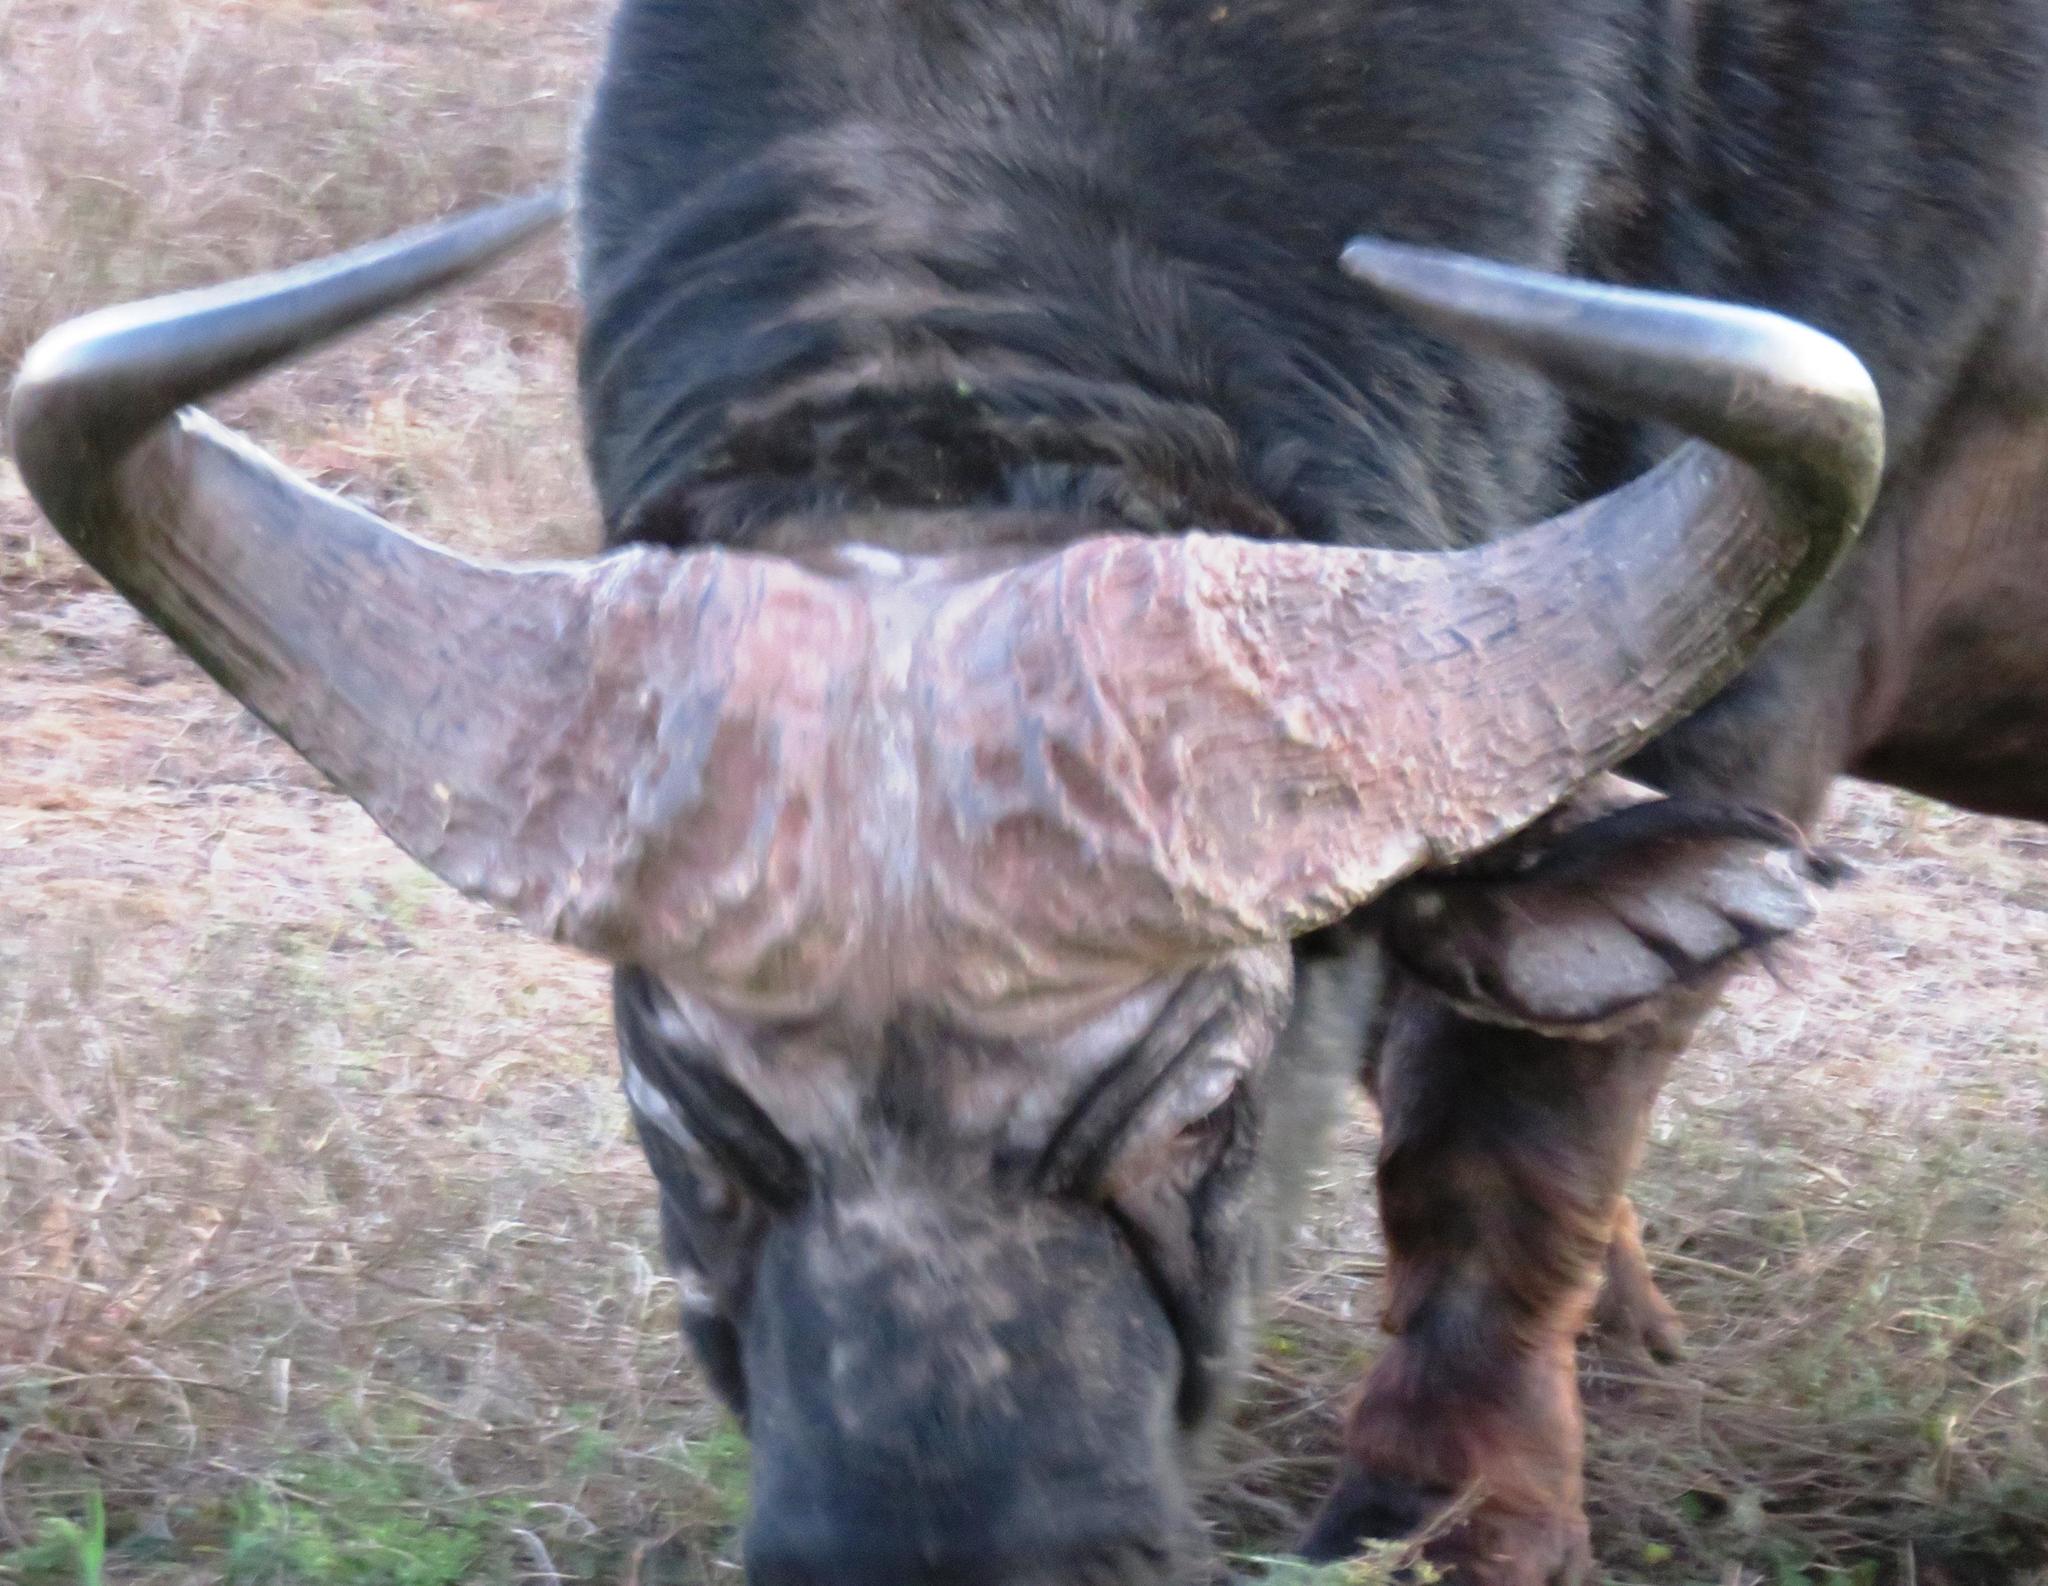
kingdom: Animalia
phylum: Chordata
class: Mammalia
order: Artiodactyla
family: Bovidae
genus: Syncerus
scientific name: Syncerus caffer
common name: African buffalo
